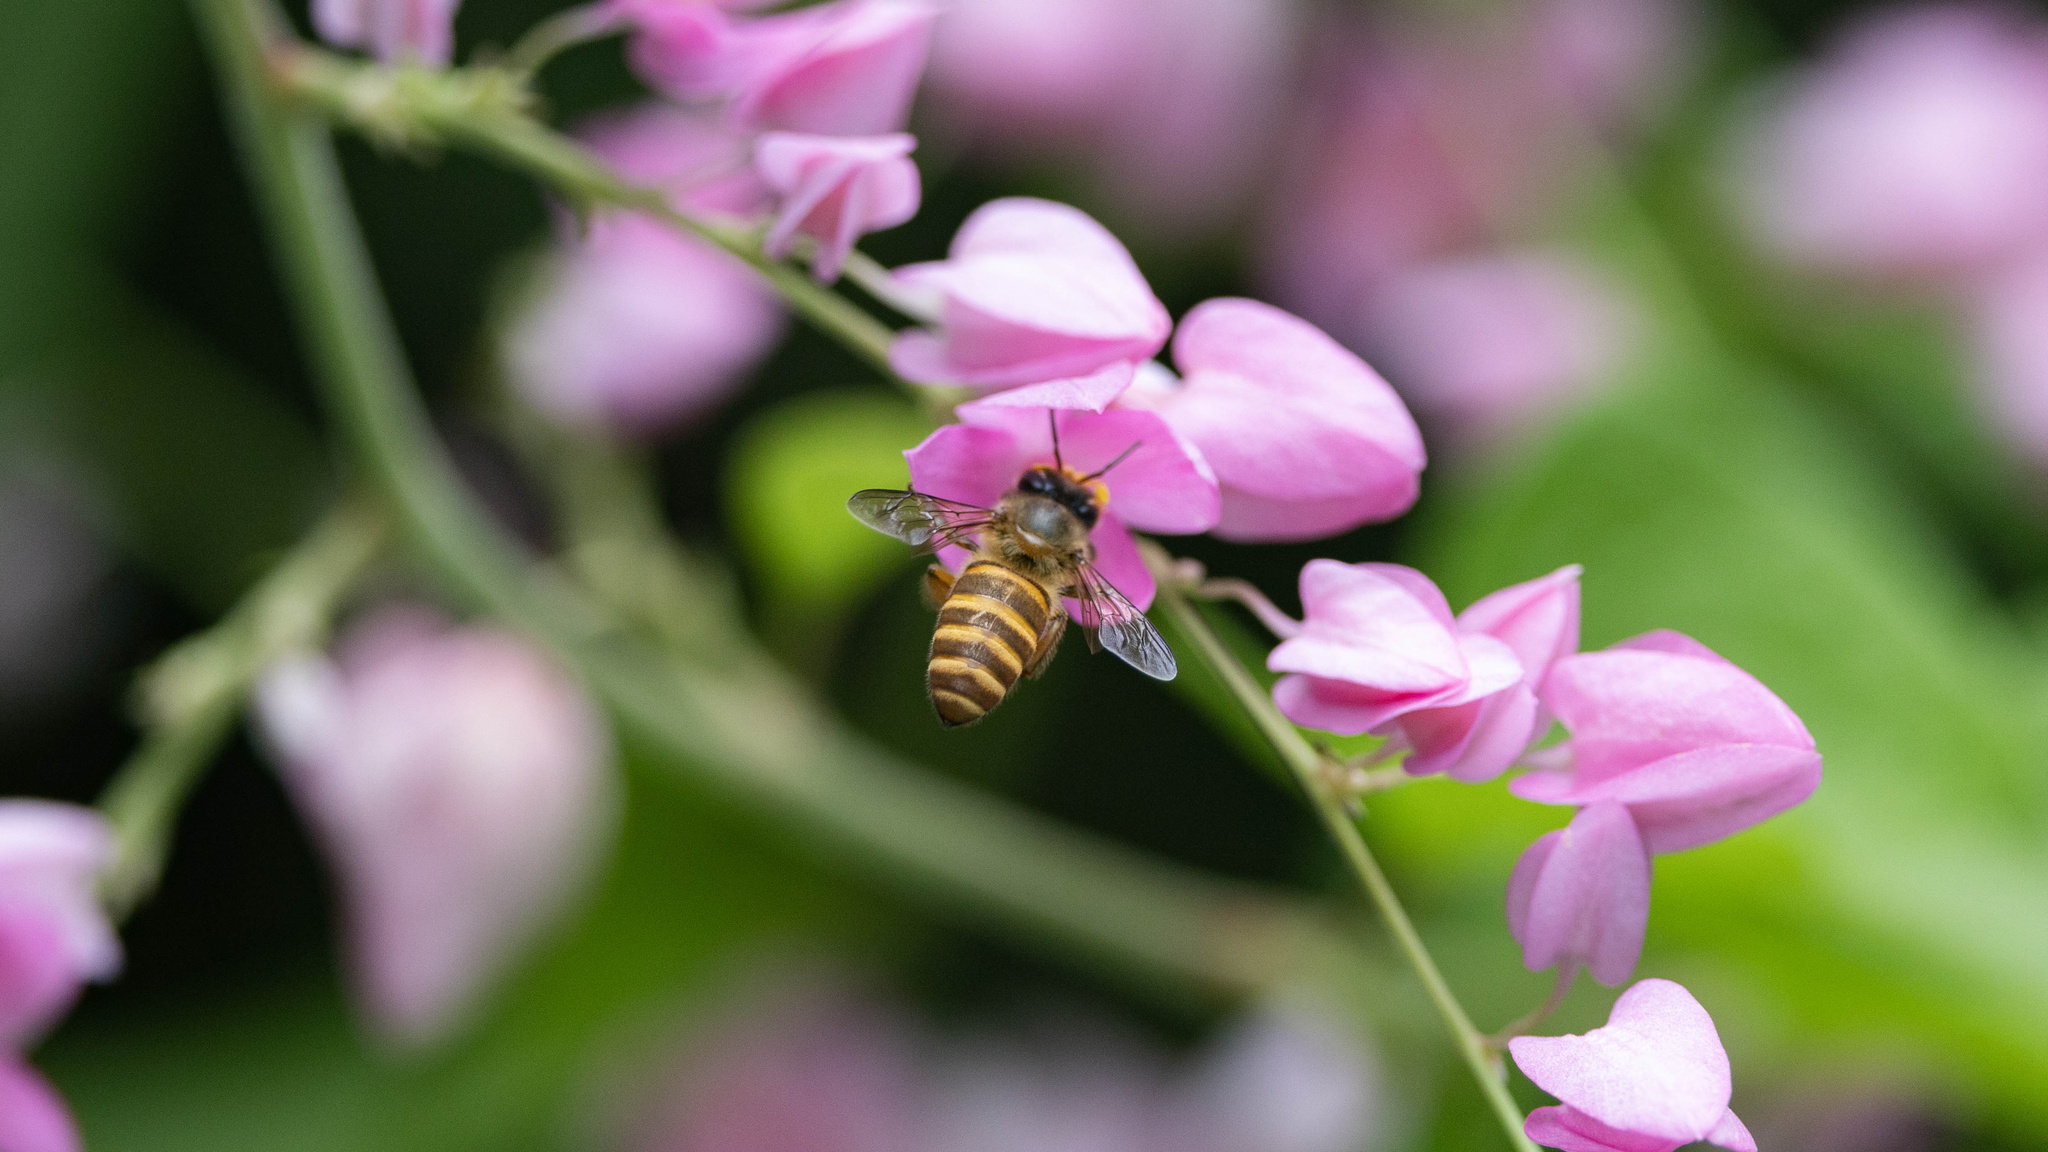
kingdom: Animalia
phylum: Arthropoda
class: Insecta
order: Hymenoptera
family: Apidae
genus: Apis
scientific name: Apis cerana
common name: Honey bee
